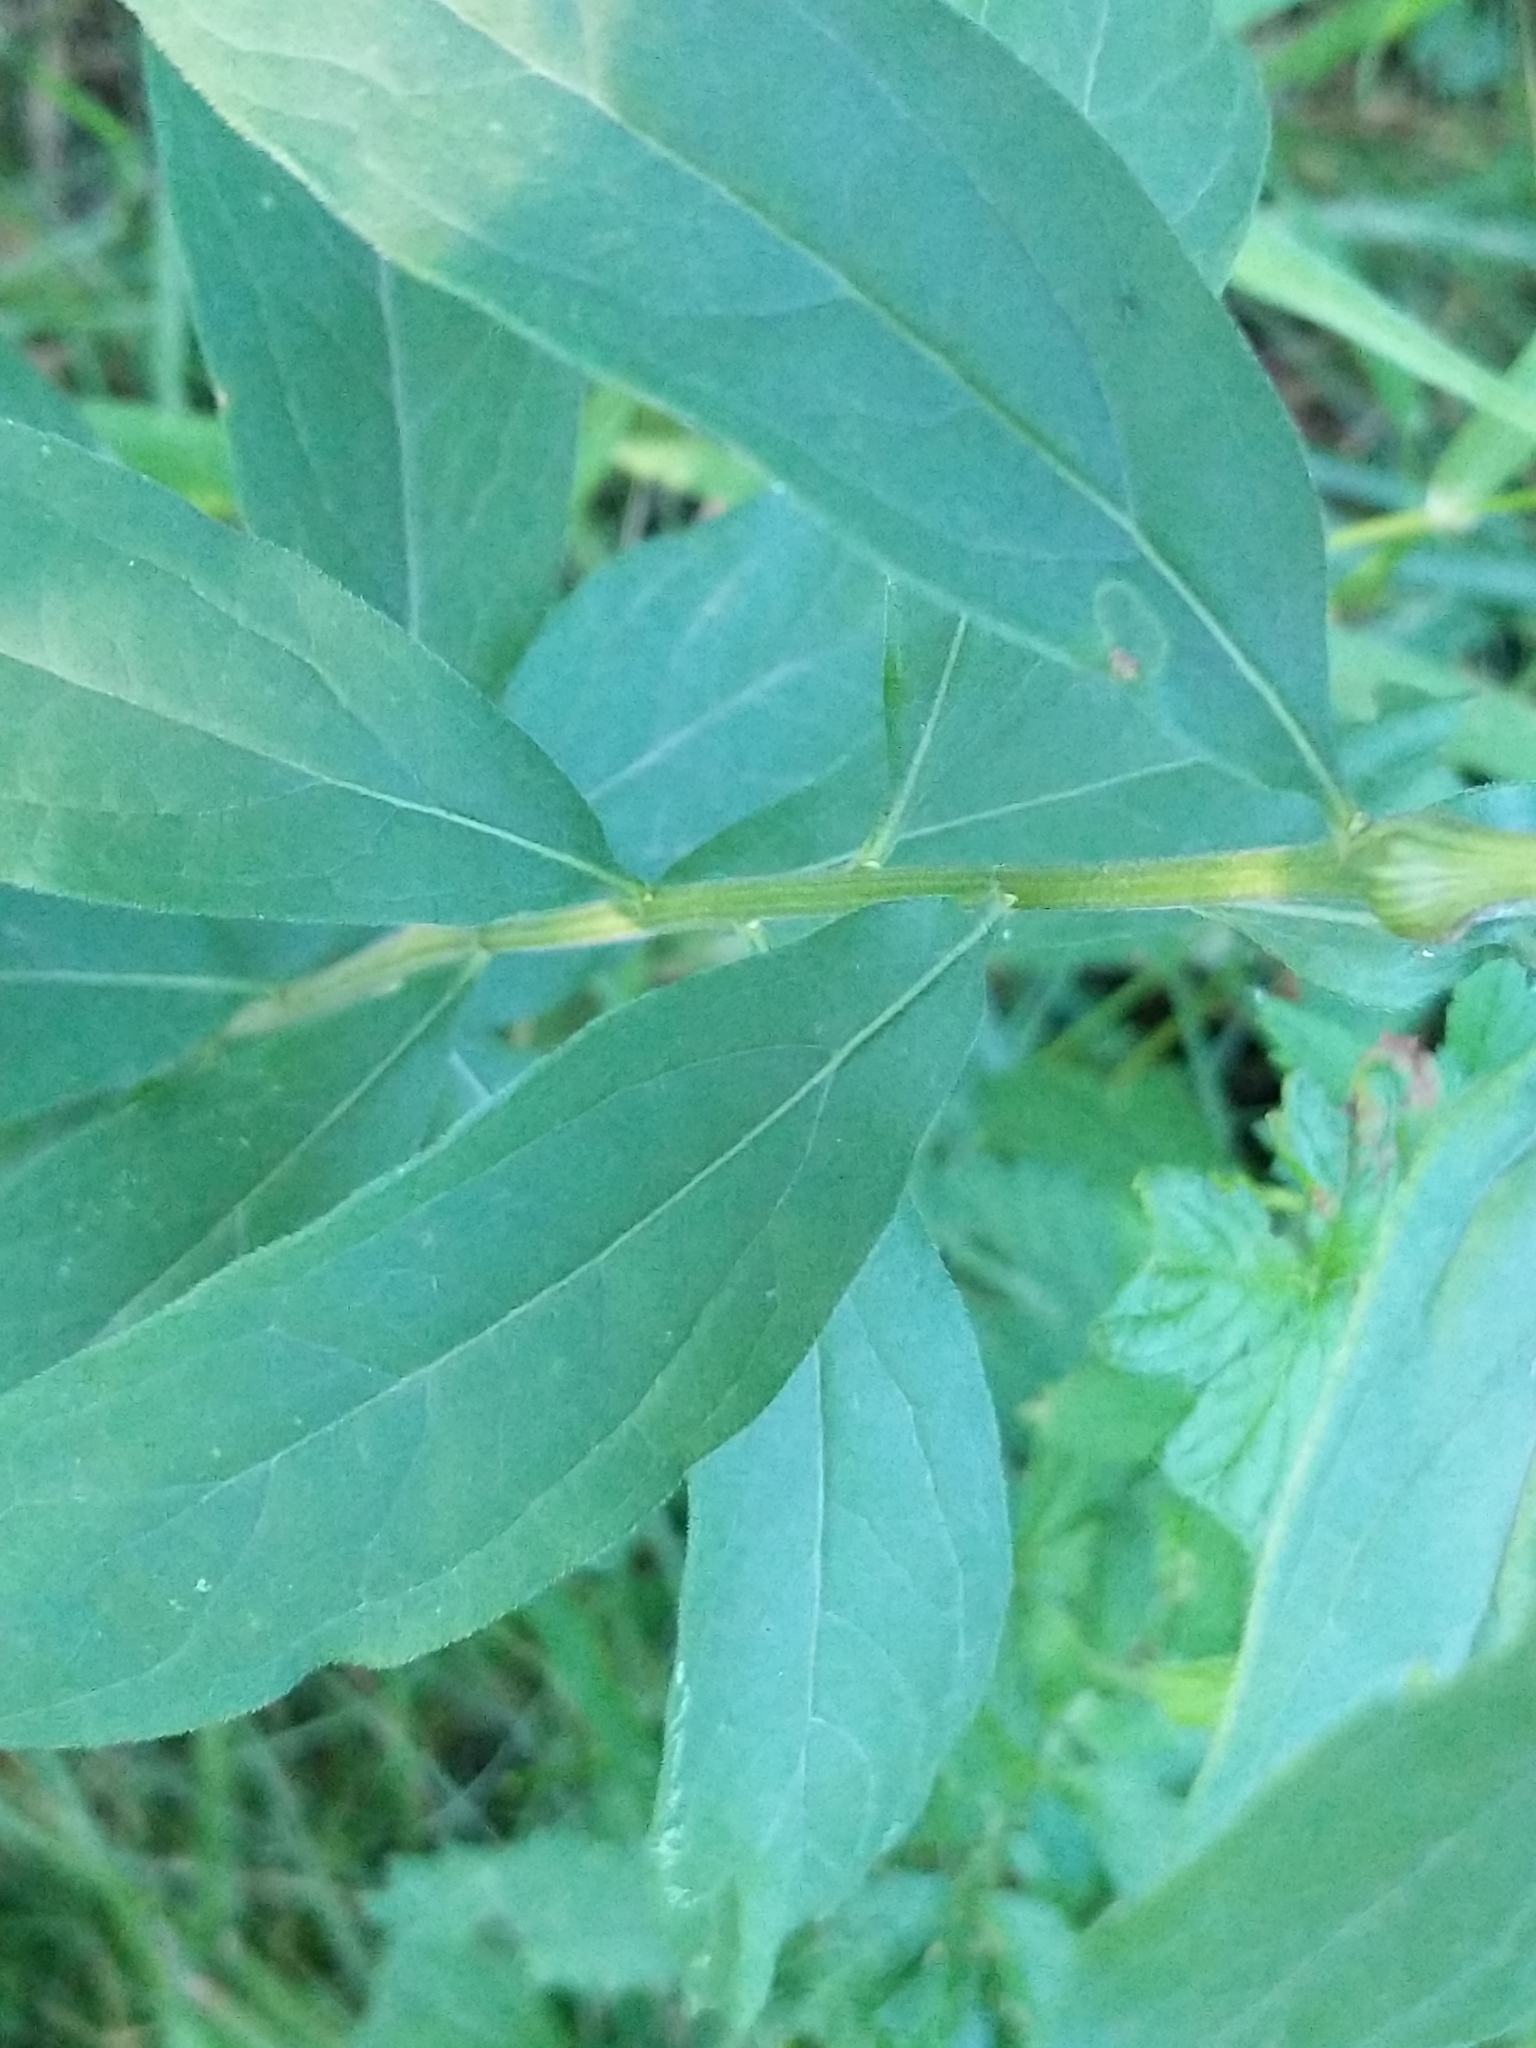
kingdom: Plantae
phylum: Tracheophyta
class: Magnoliopsida
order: Asterales
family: Asteraceae
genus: Doellingeria
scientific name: Doellingeria umbellata
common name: Flat-top white aster
